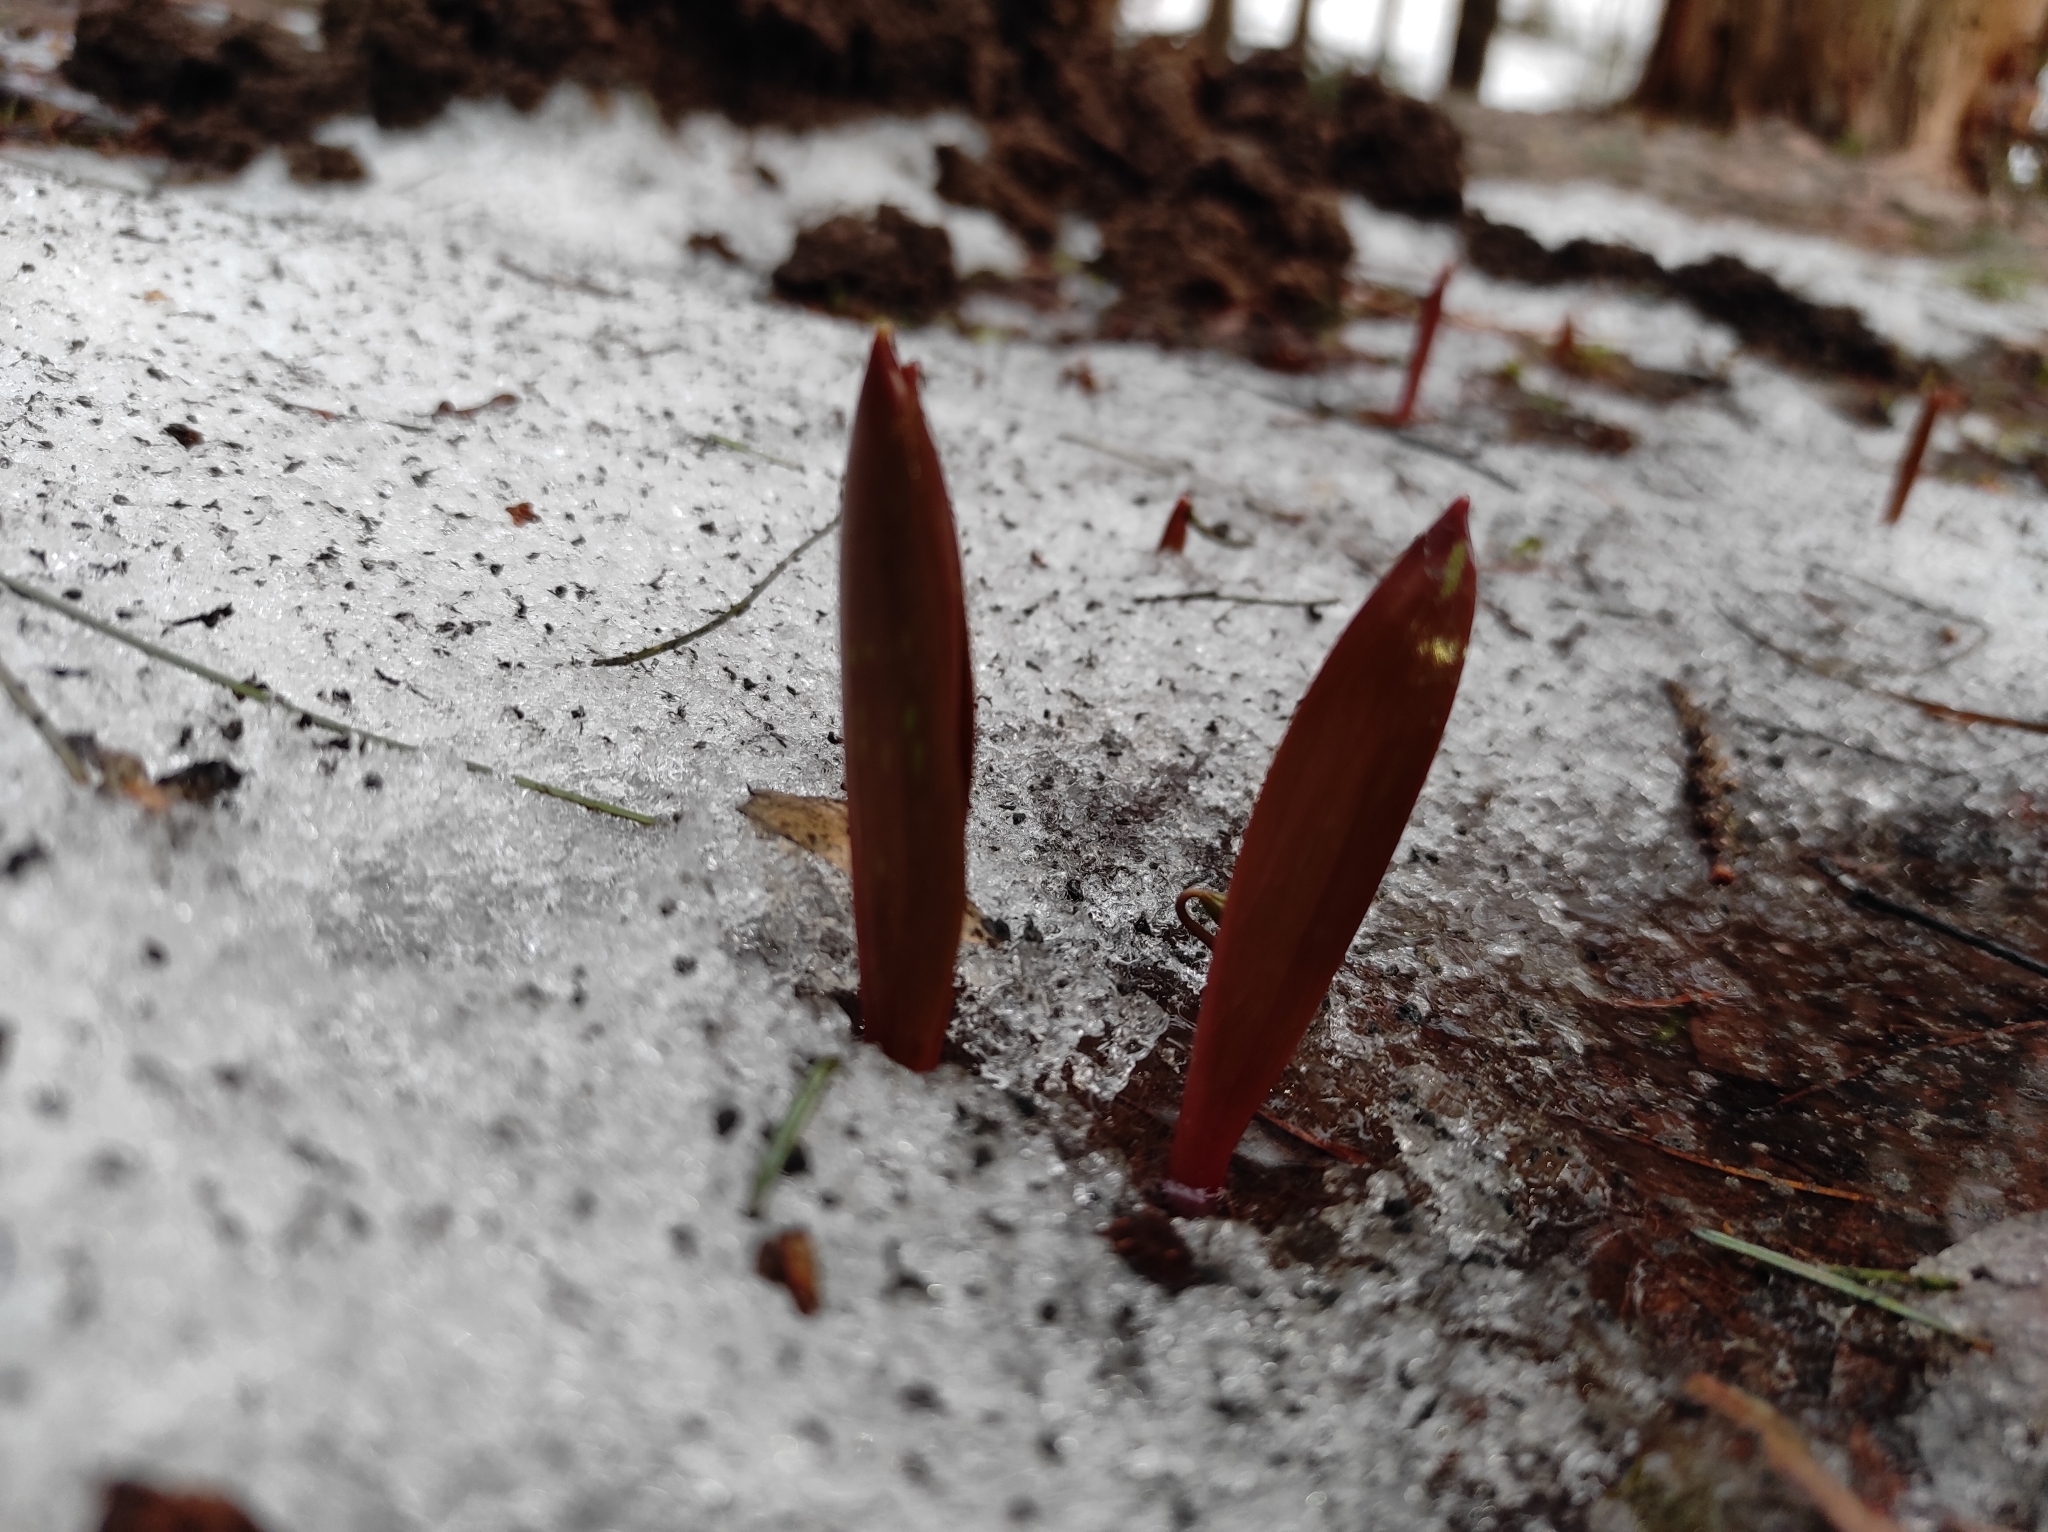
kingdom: Plantae
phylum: Tracheophyta
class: Liliopsida
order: Liliales
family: Liliaceae
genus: Erythronium
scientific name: Erythronium sibiricum
